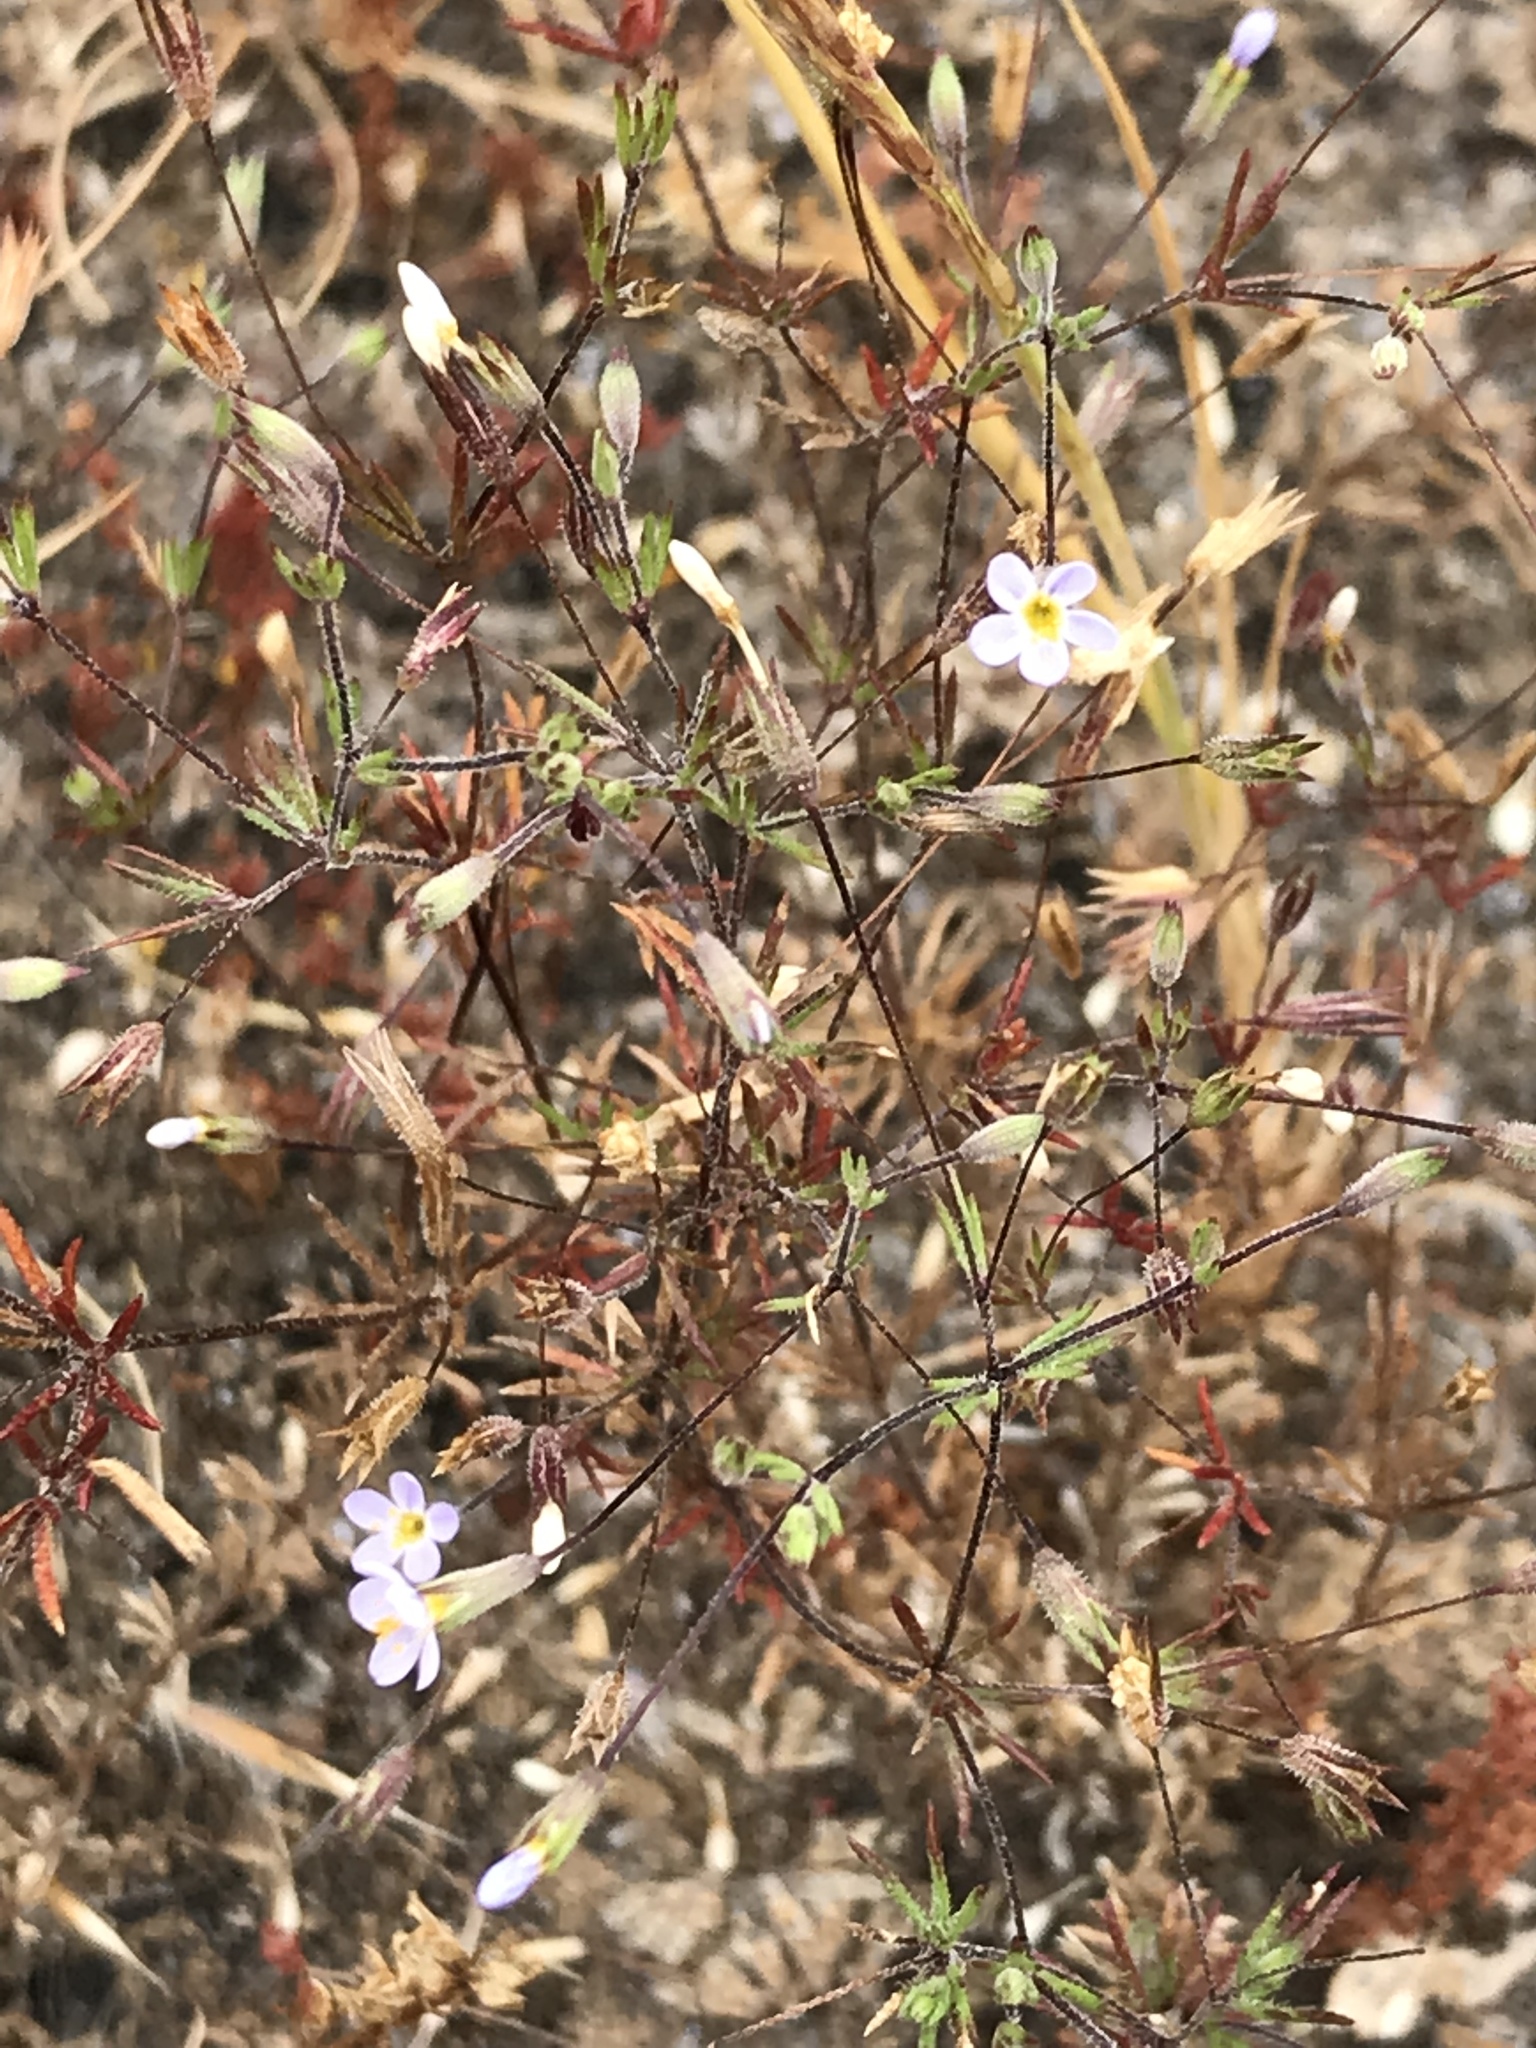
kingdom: Plantae
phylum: Tracheophyta
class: Magnoliopsida
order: Ericales
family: Polemoniaceae
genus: Leptosiphon
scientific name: Leptosiphon pygmaeus
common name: Pygmy linanthus
